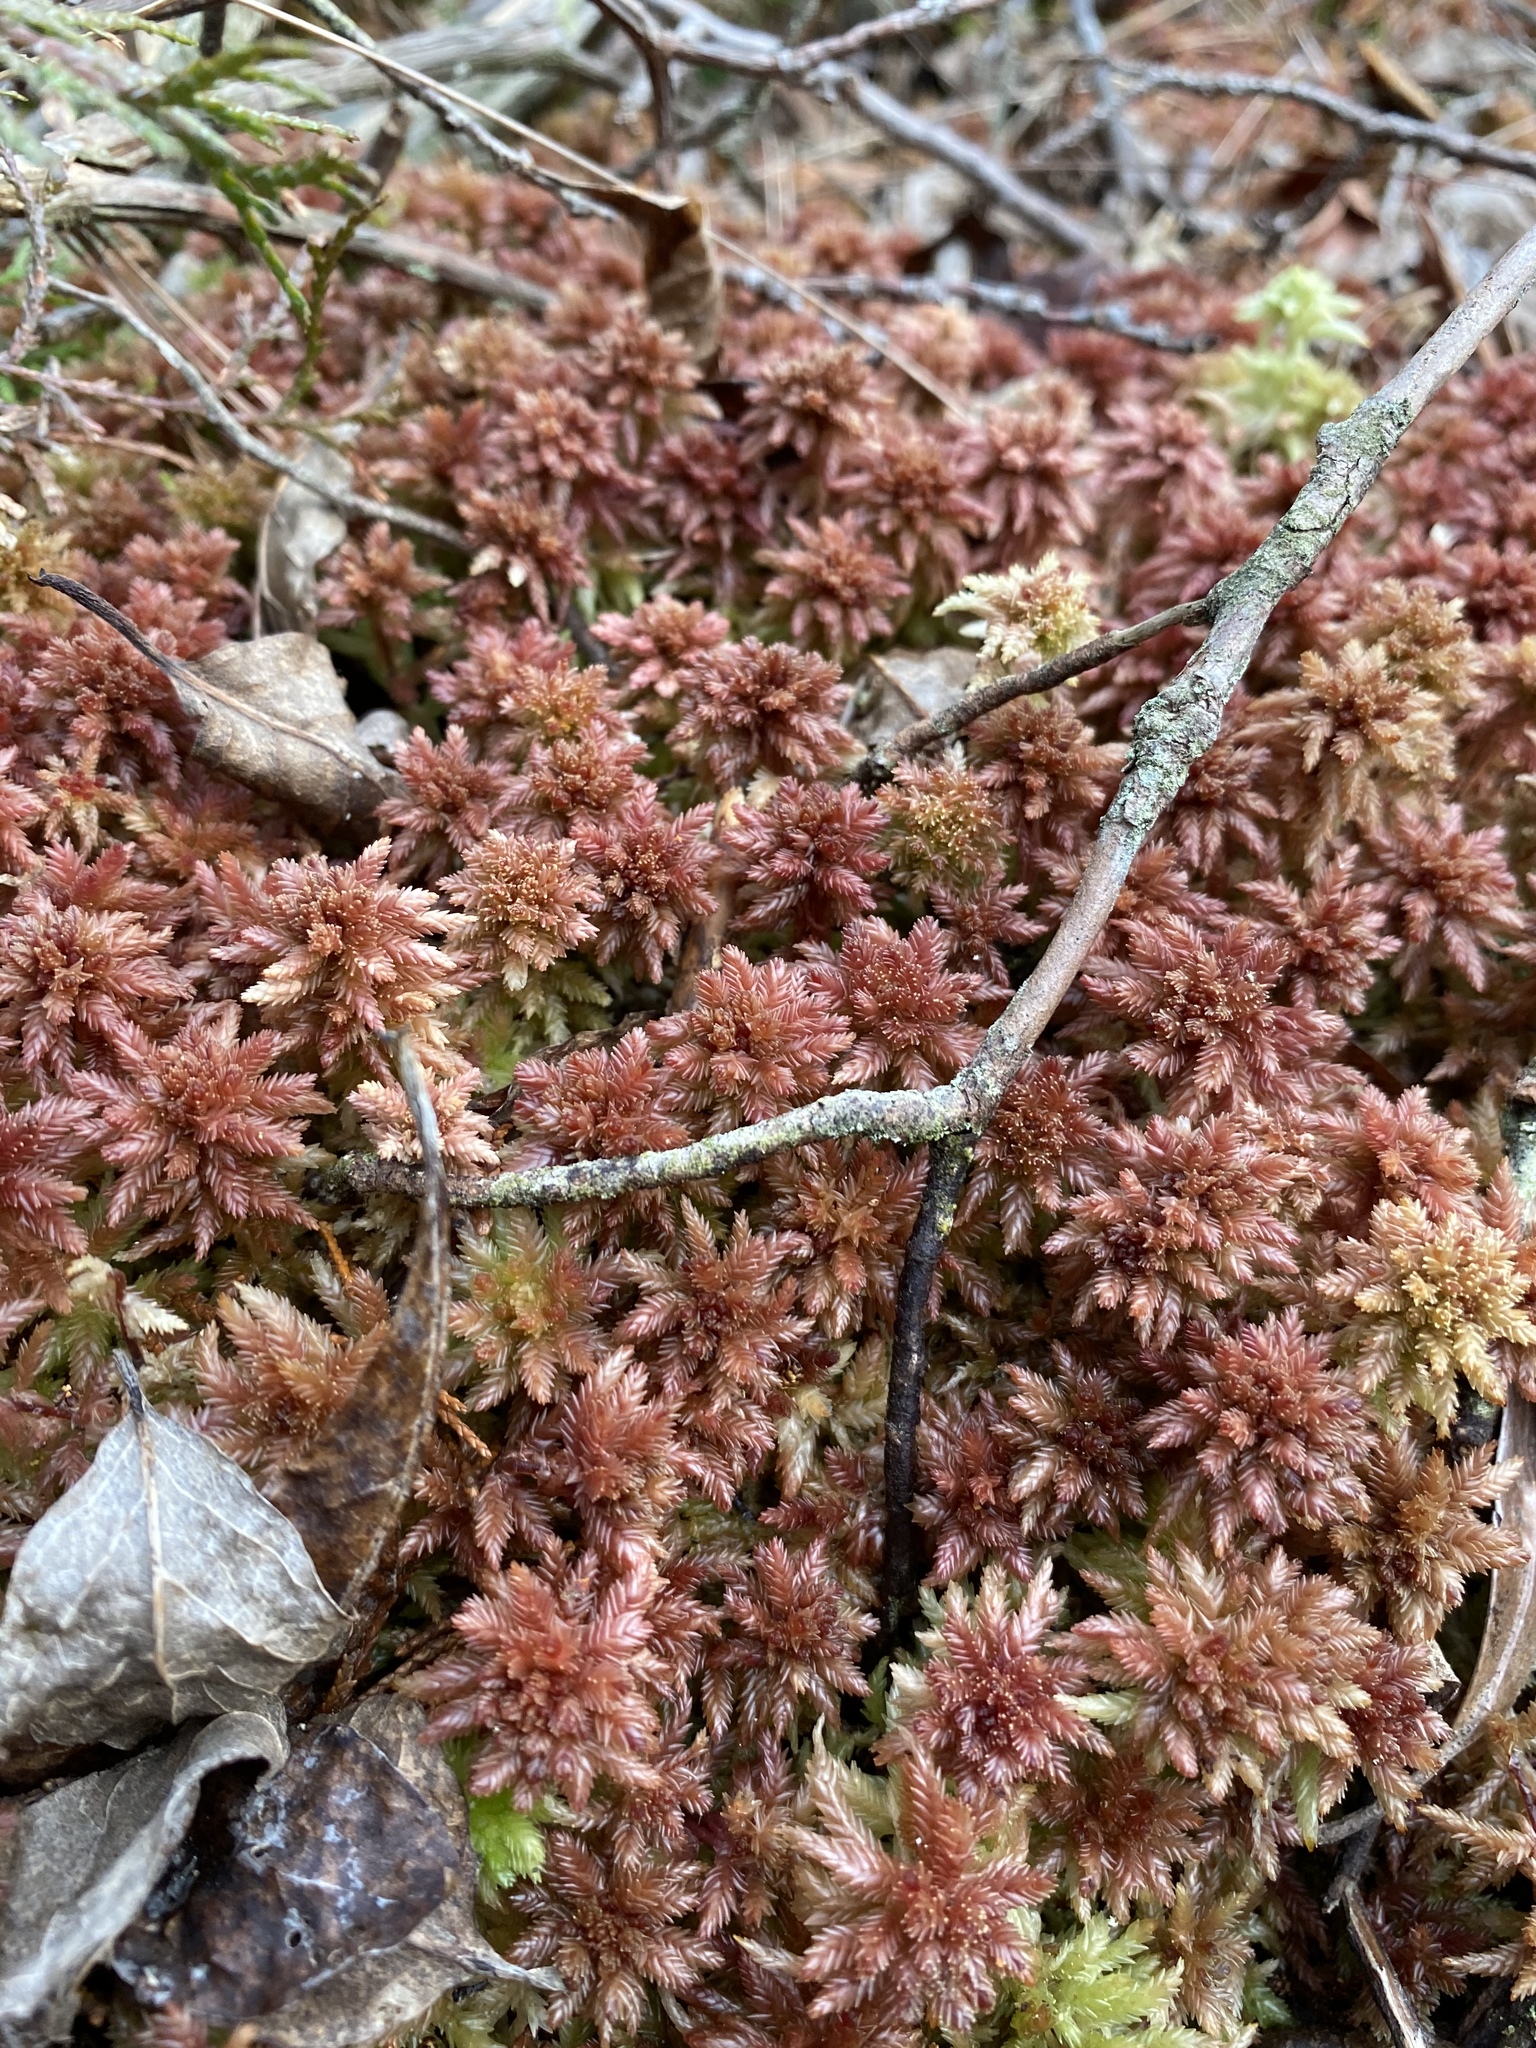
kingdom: Plantae
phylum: Bryophyta
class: Sphagnopsida
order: Sphagnales
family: Sphagnaceae
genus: Sphagnum
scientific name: Sphagnum medium
